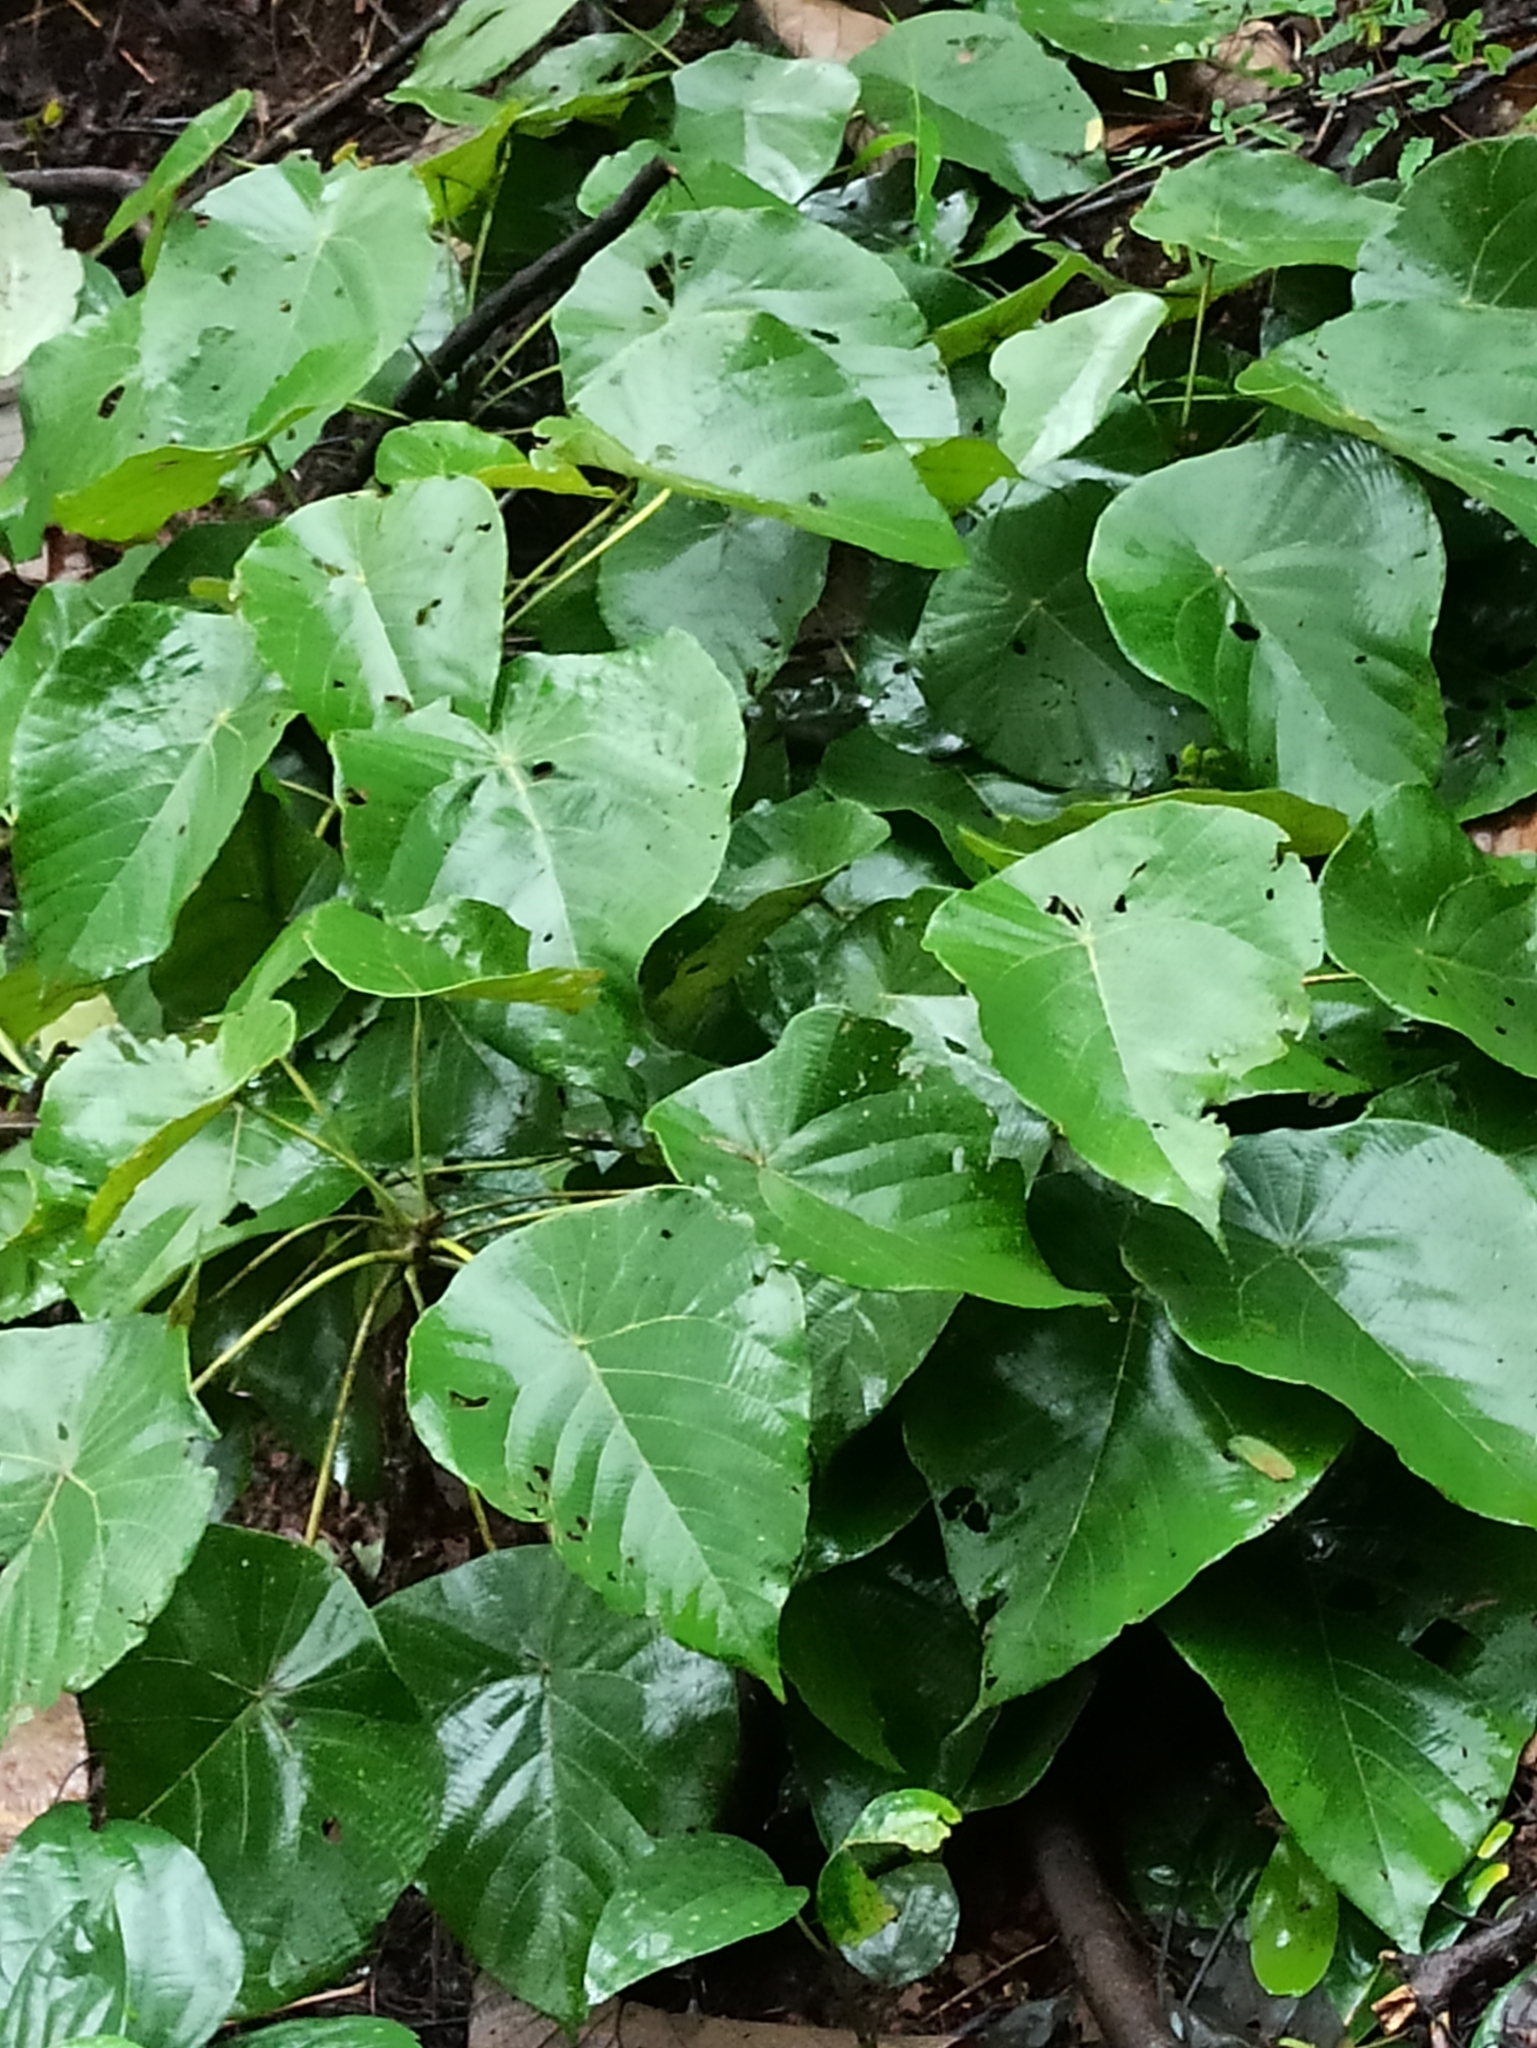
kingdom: Plantae
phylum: Tracheophyta
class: Magnoliopsida
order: Malpighiales
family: Euphorbiaceae
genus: Macaranga
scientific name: Macaranga peltata
